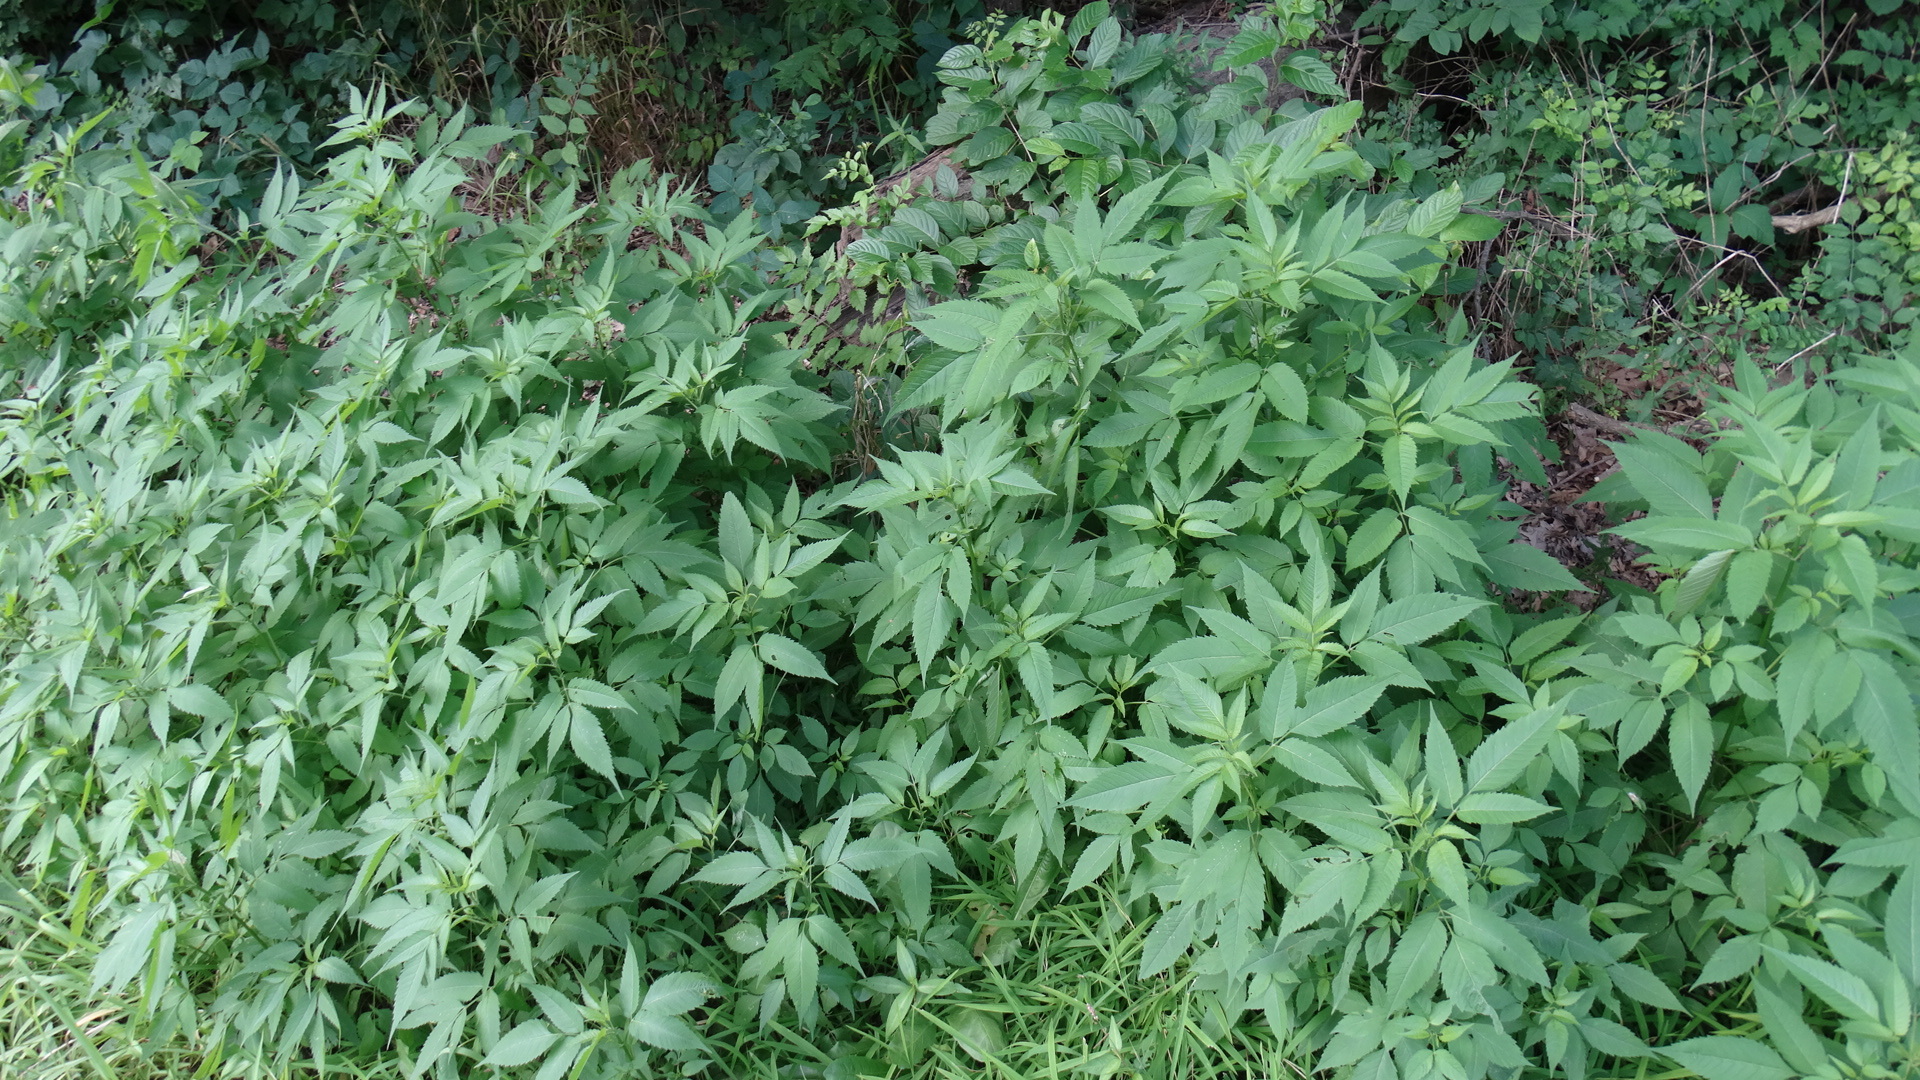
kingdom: Plantae
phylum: Tracheophyta
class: Magnoliopsida
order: Asterales
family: Asteraceae
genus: Ambrosia
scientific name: Ambrosia trifida
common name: Giant ragweed
